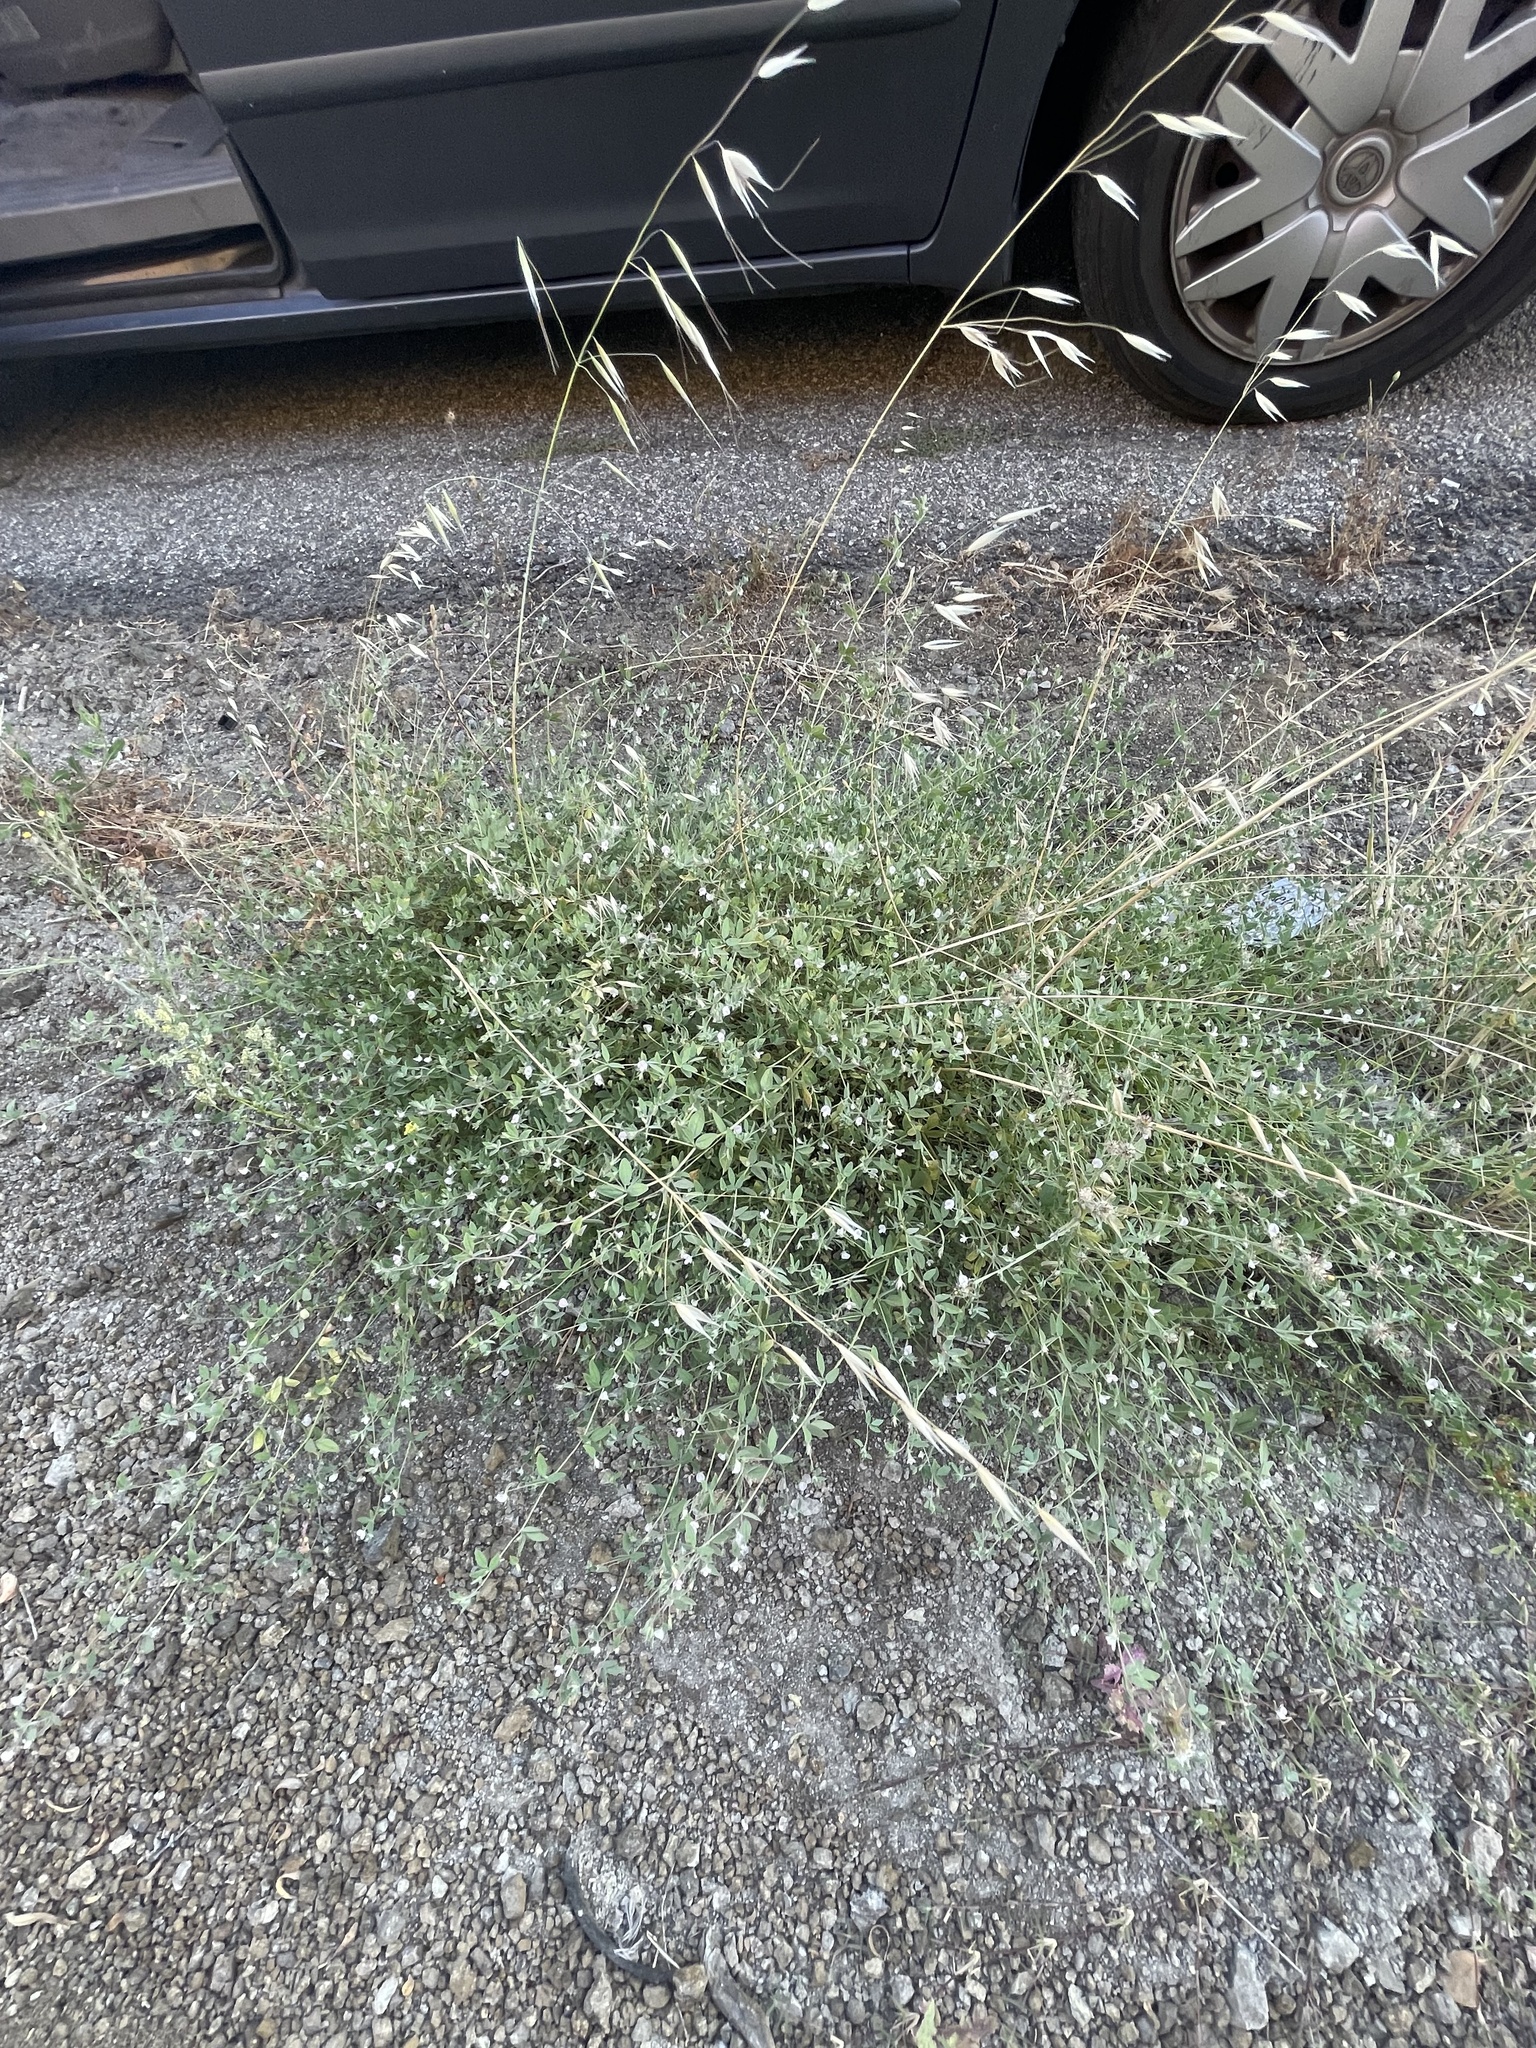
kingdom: Plantae
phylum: Tracheophyta
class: Magnoliopsida
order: Fabales
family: Fabaceae
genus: Acmispon
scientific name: Acmispon americanus
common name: American bird's-foot trefoil
